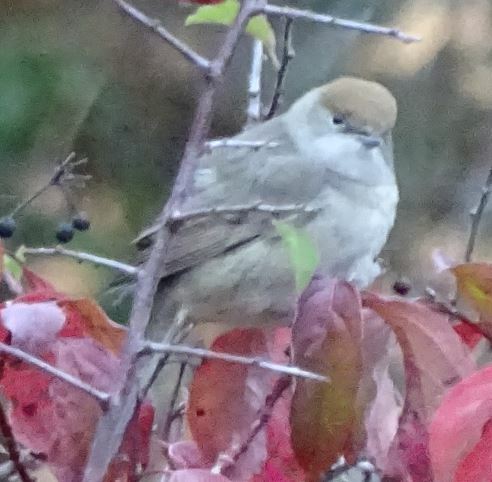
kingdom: Animalia
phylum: Chordata
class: Aves
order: Passeriformes
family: Sylviidae
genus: Sylvia
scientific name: Sylvia atricapilla
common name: Eurasian blackcap
